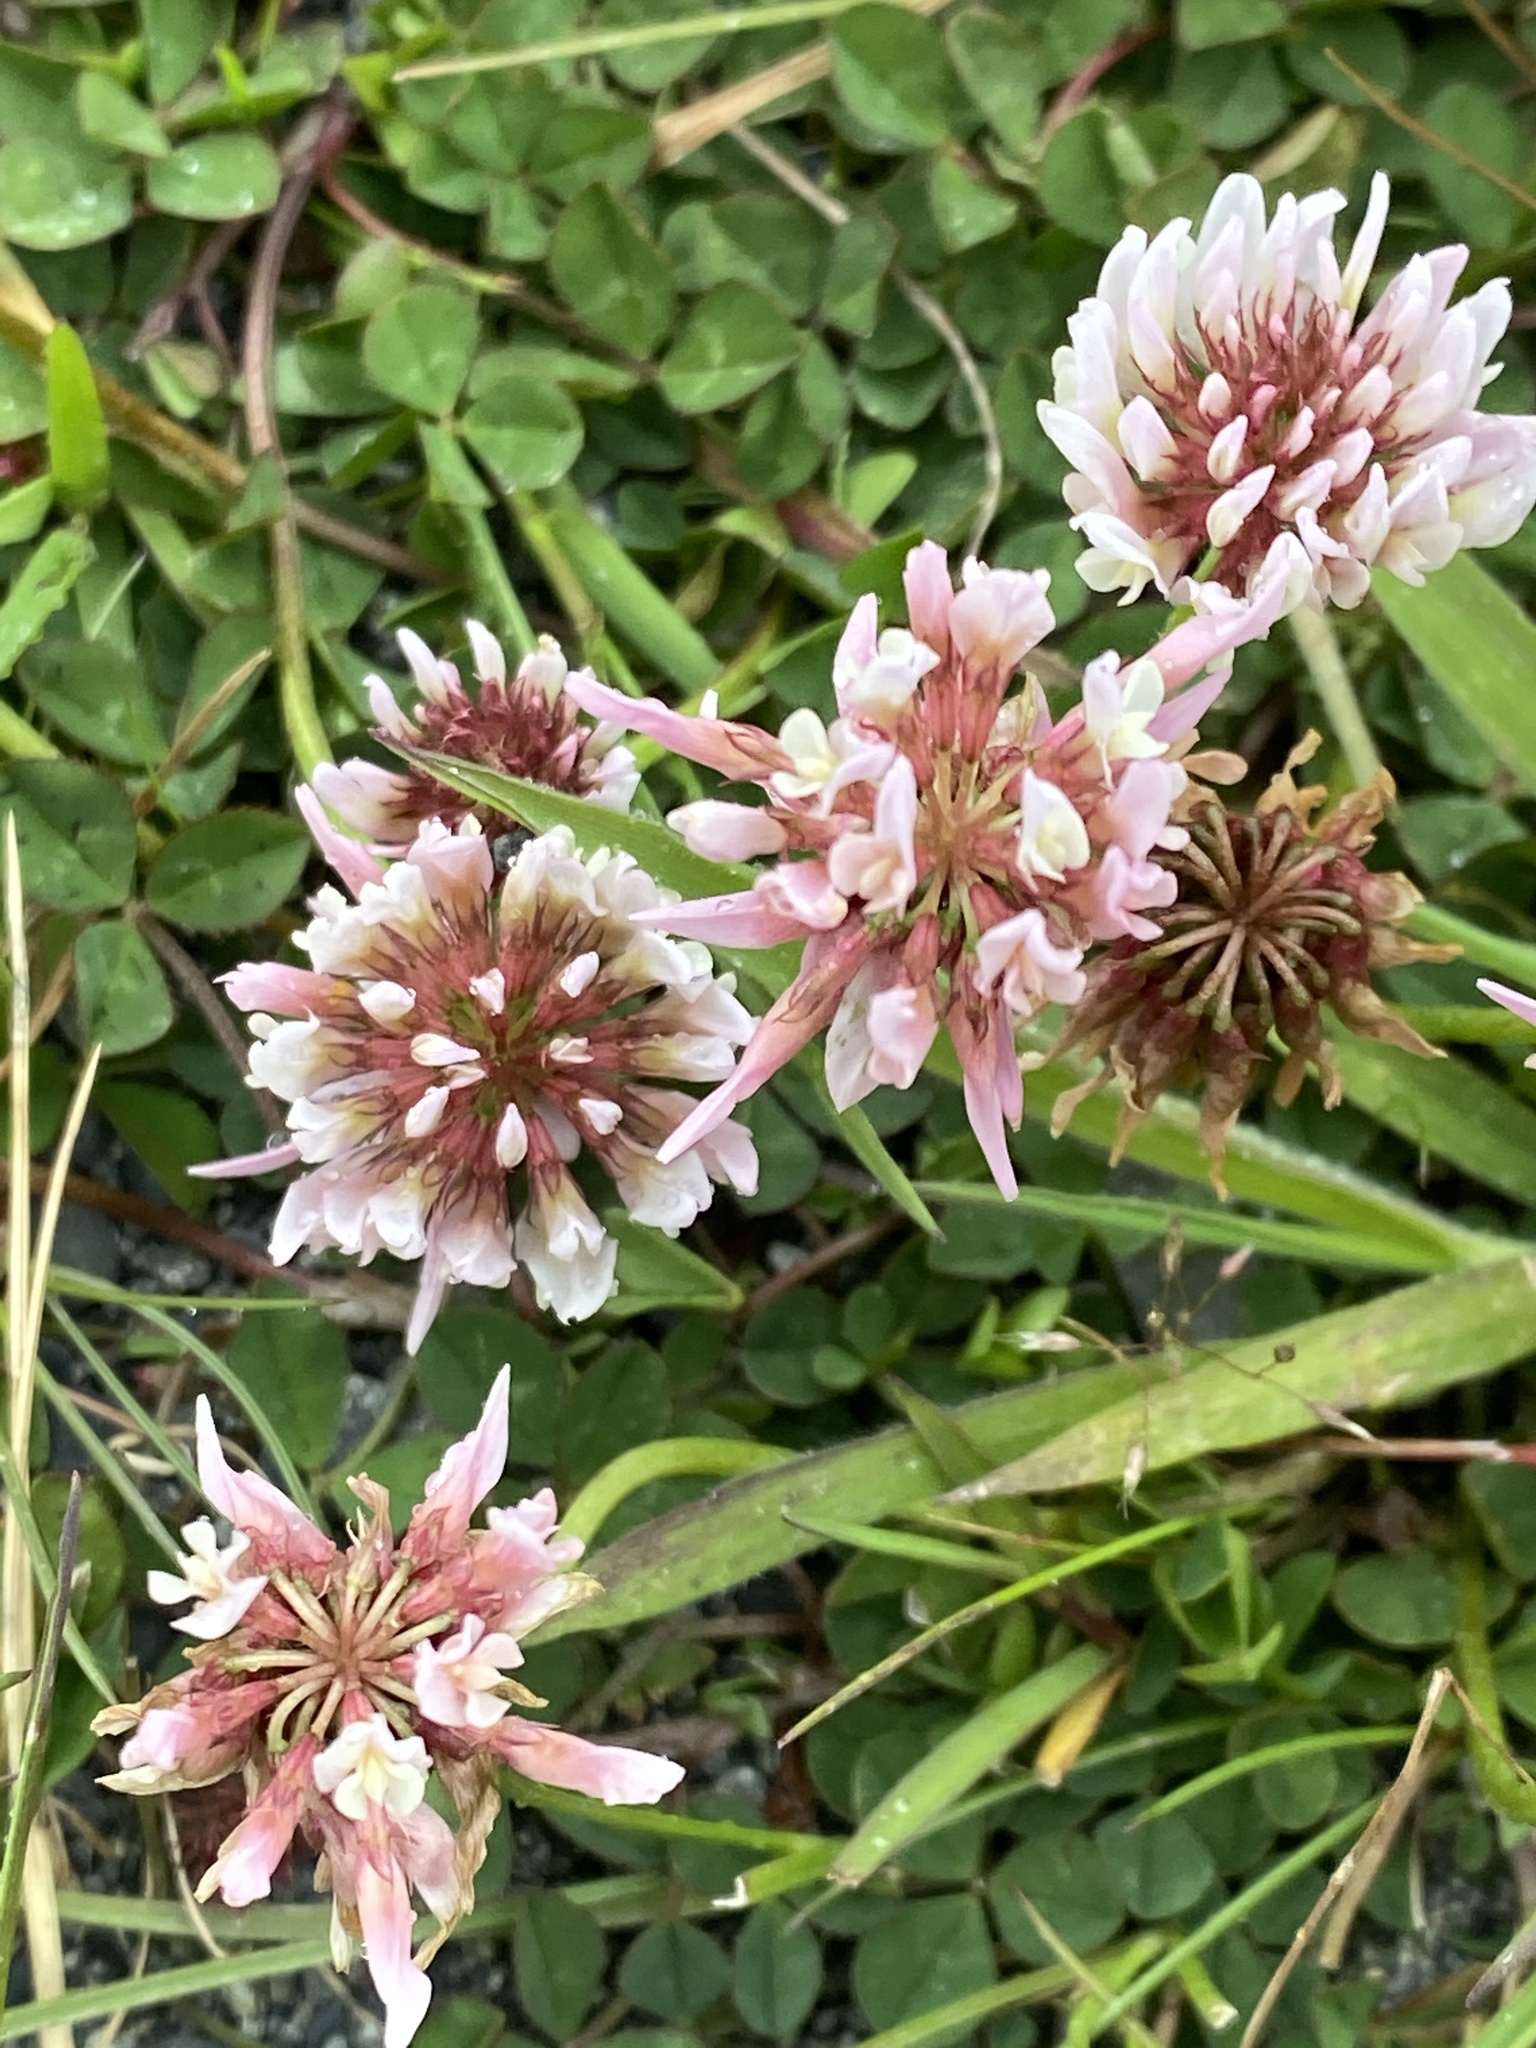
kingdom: Plantae
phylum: Tracheophyta
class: Magnoliopsida
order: Fabales
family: Fabaceae
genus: Trifolium
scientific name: Trifolium repens
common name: White clover
